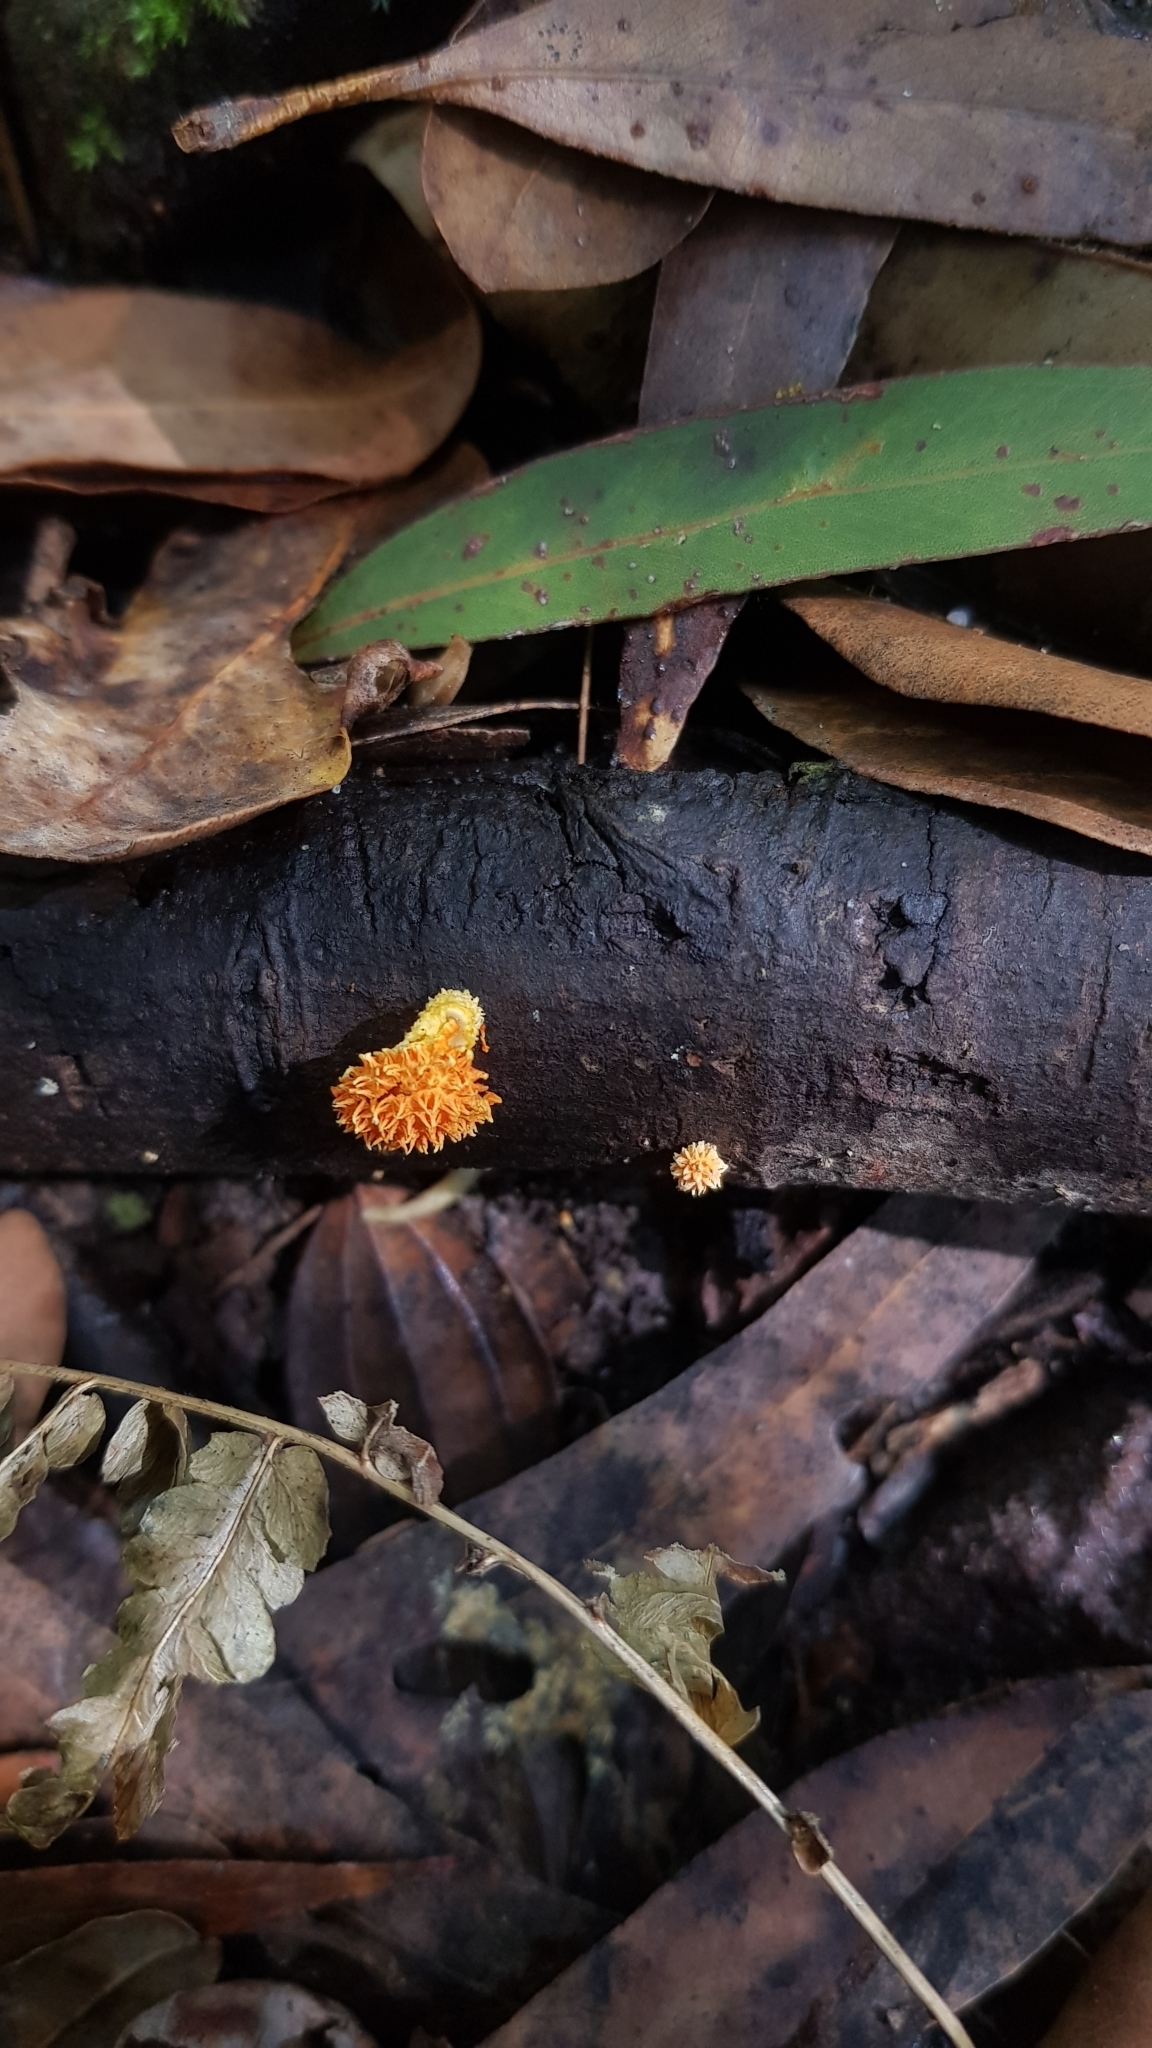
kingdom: Fungi
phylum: Basidiomycota
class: Agaricomycetes
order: Agaricales
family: Physalacriaceae
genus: Cyptotrama
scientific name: Cyptotrama asprata
